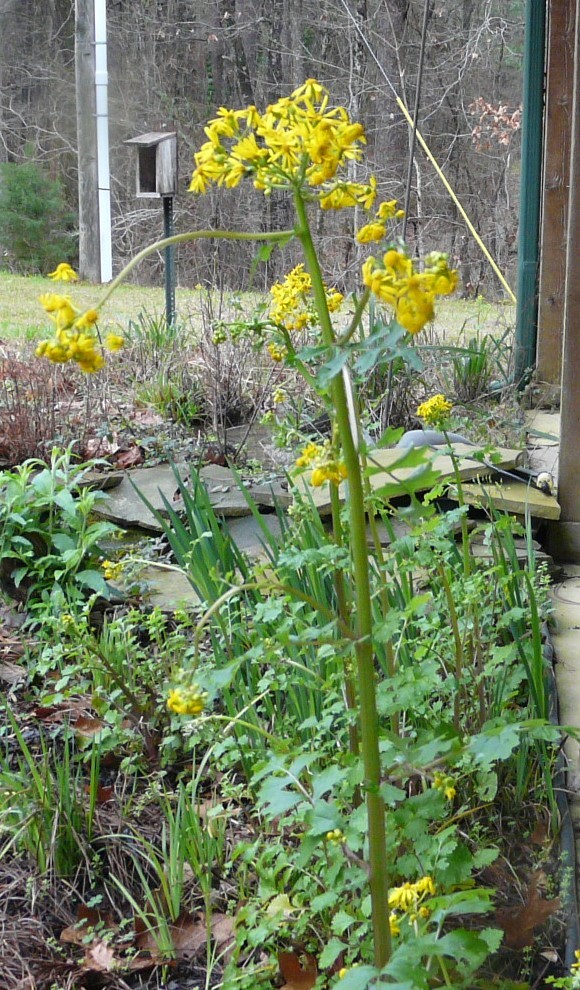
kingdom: Plantae
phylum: Tracheophyta
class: Magnoliopsida
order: Asterales
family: Asteraceae
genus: Packera
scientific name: Packera glabella
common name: Butterweed
